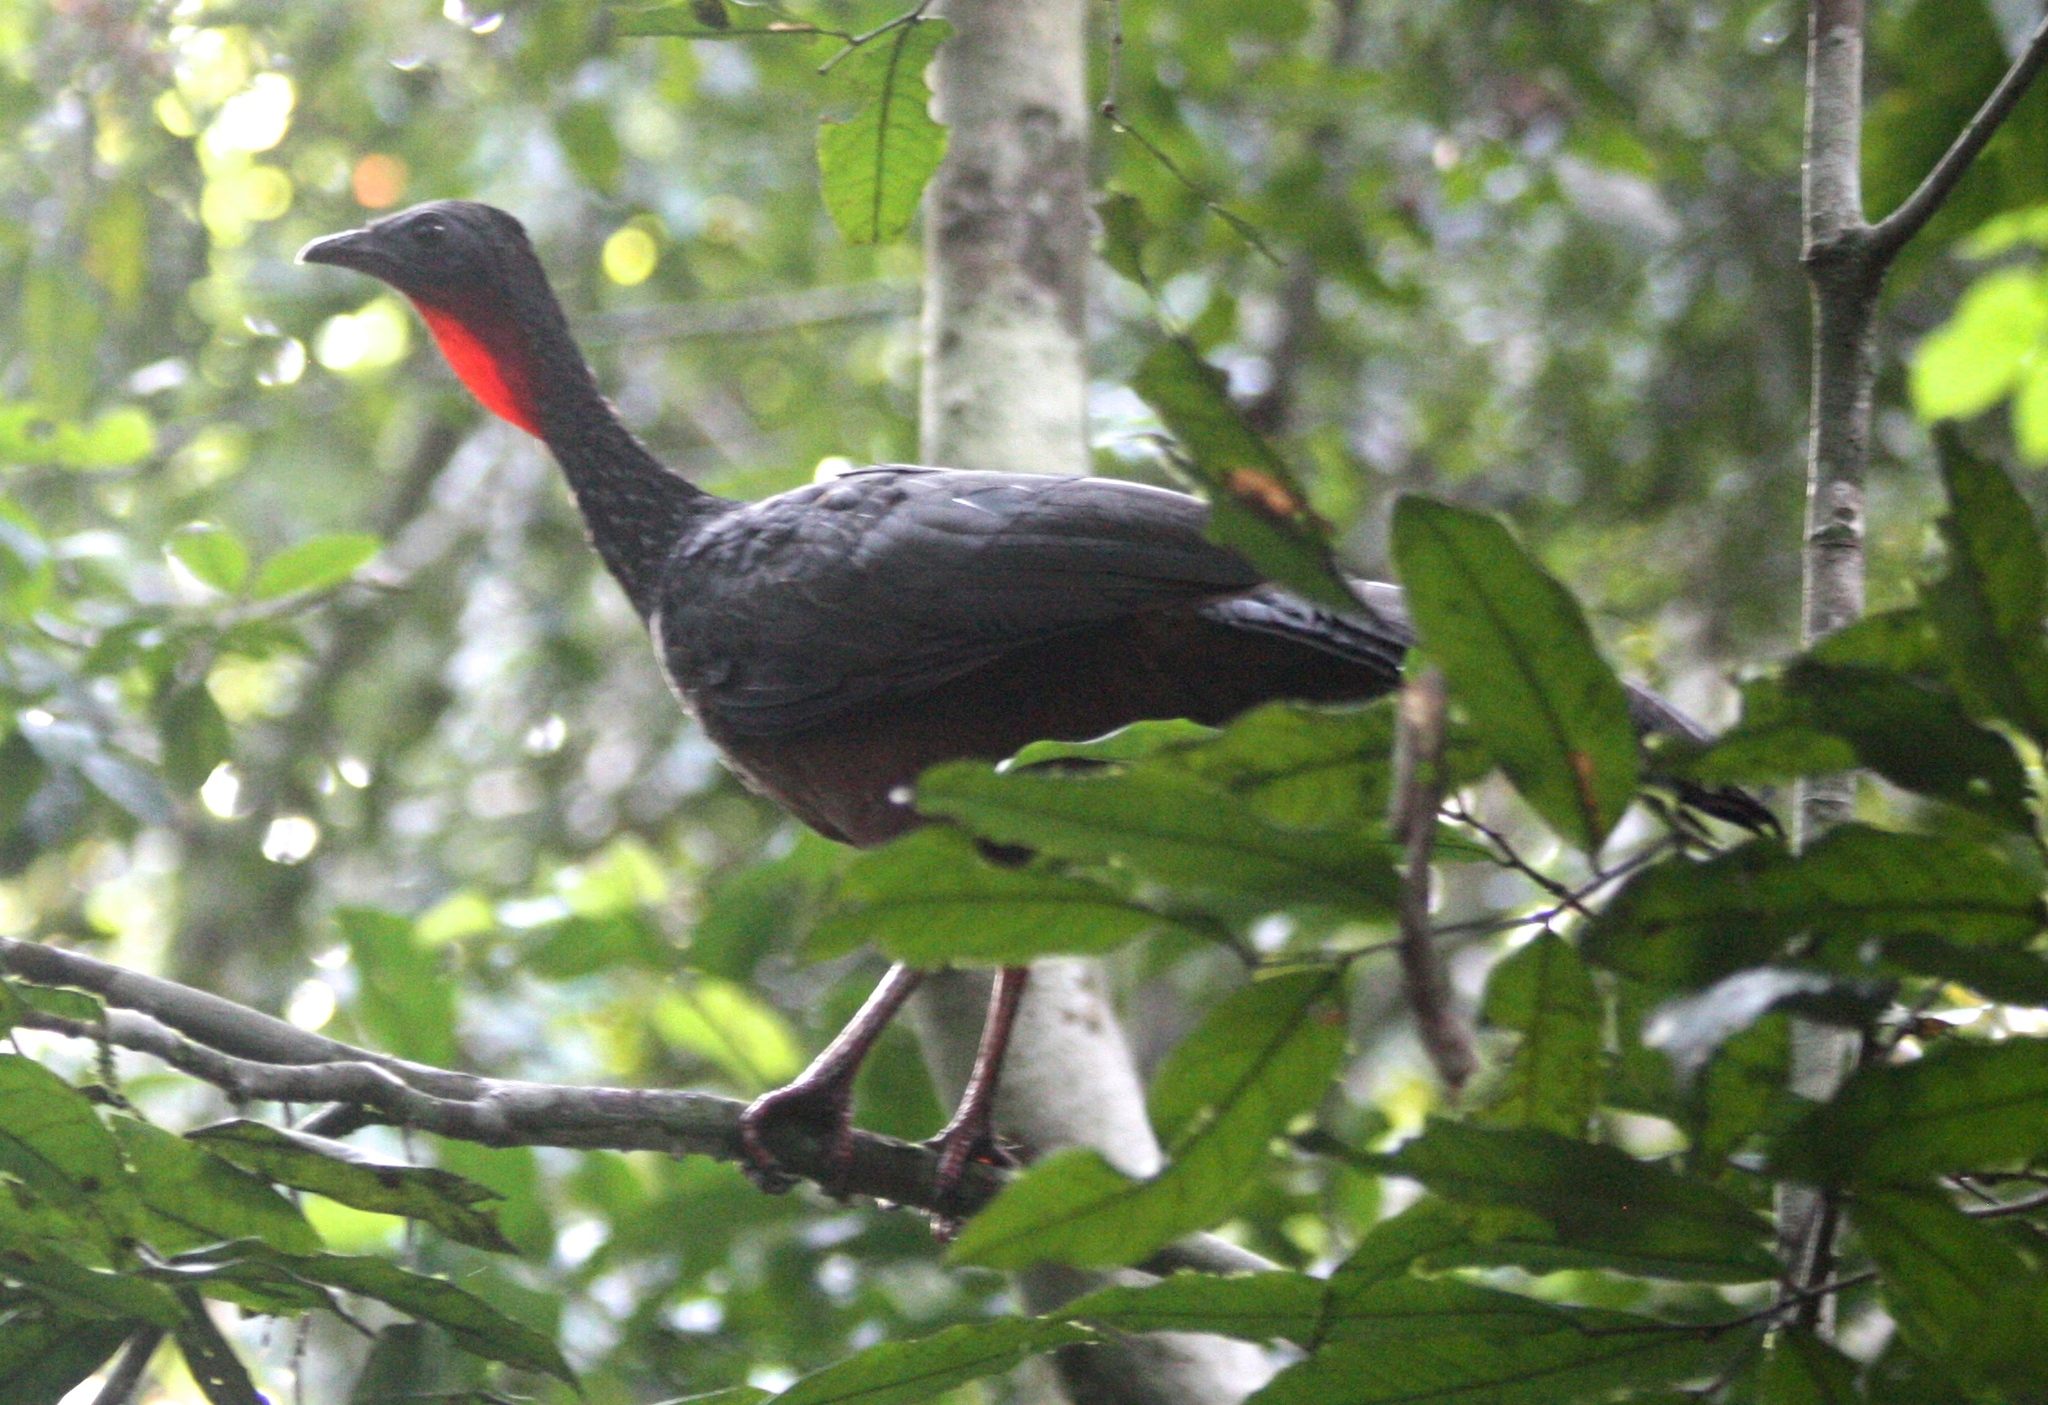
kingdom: Animalia
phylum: Chordata
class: Aves
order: Galliformes
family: Cracidae
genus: Penelope
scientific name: Penelope jacquacu
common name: Spix's guan
